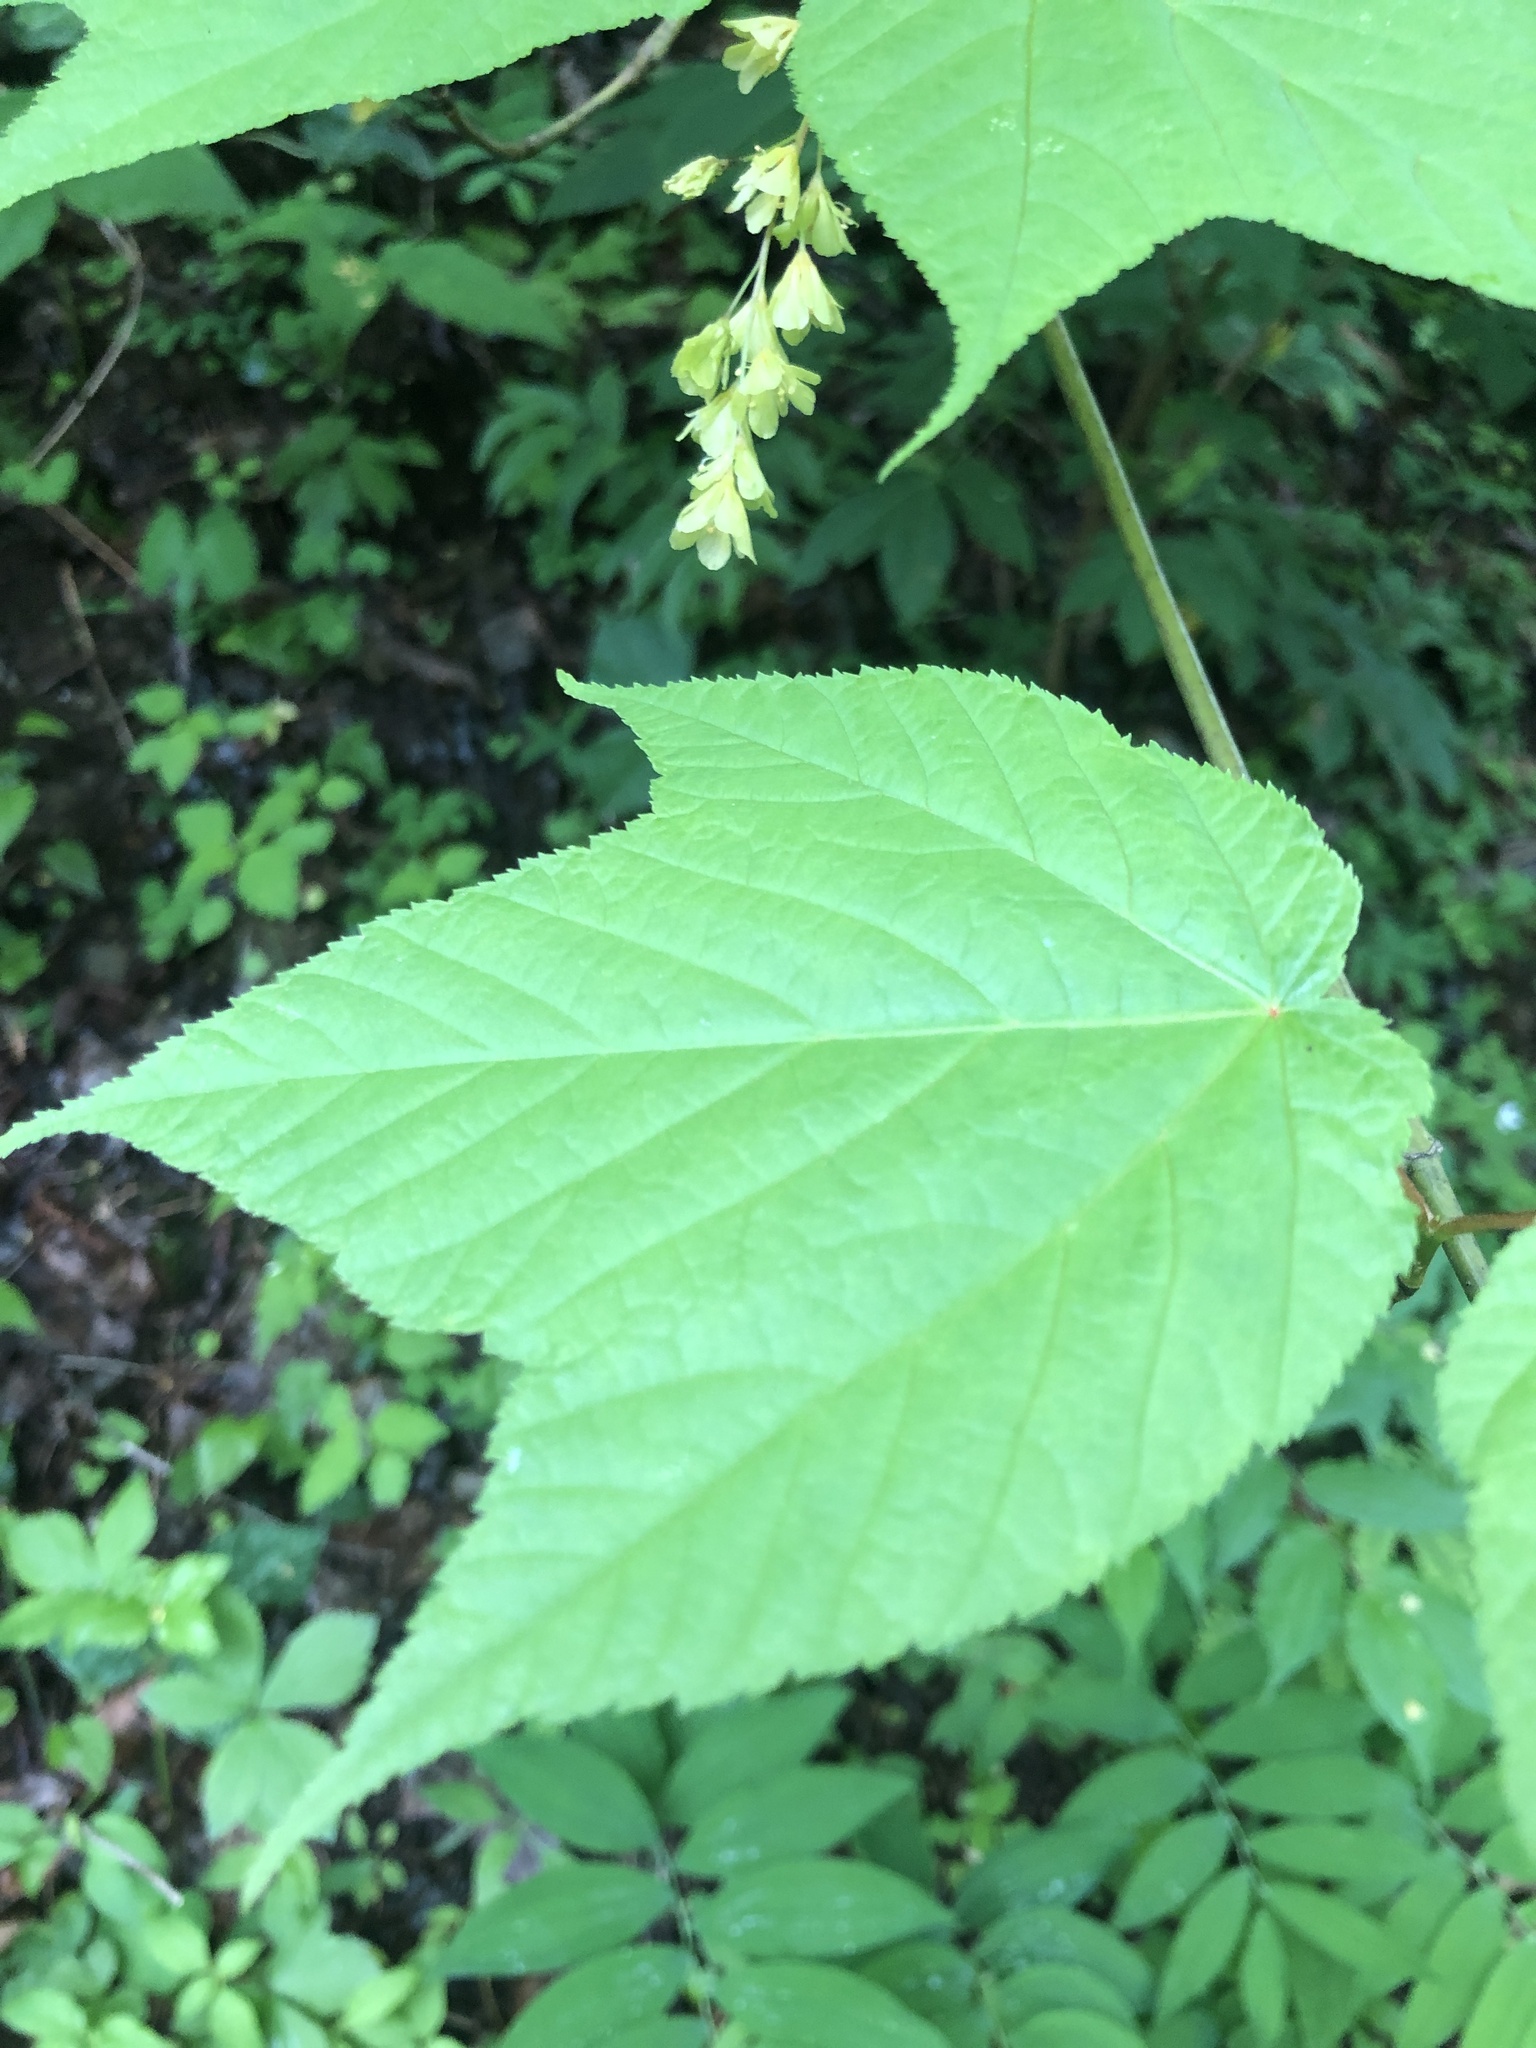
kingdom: Plantae
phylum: Tracheophyta
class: Magnoliopsida
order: Sapindales
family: Sapindaceae
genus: Acer
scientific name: Acer pensylvanicum
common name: Moosewood
